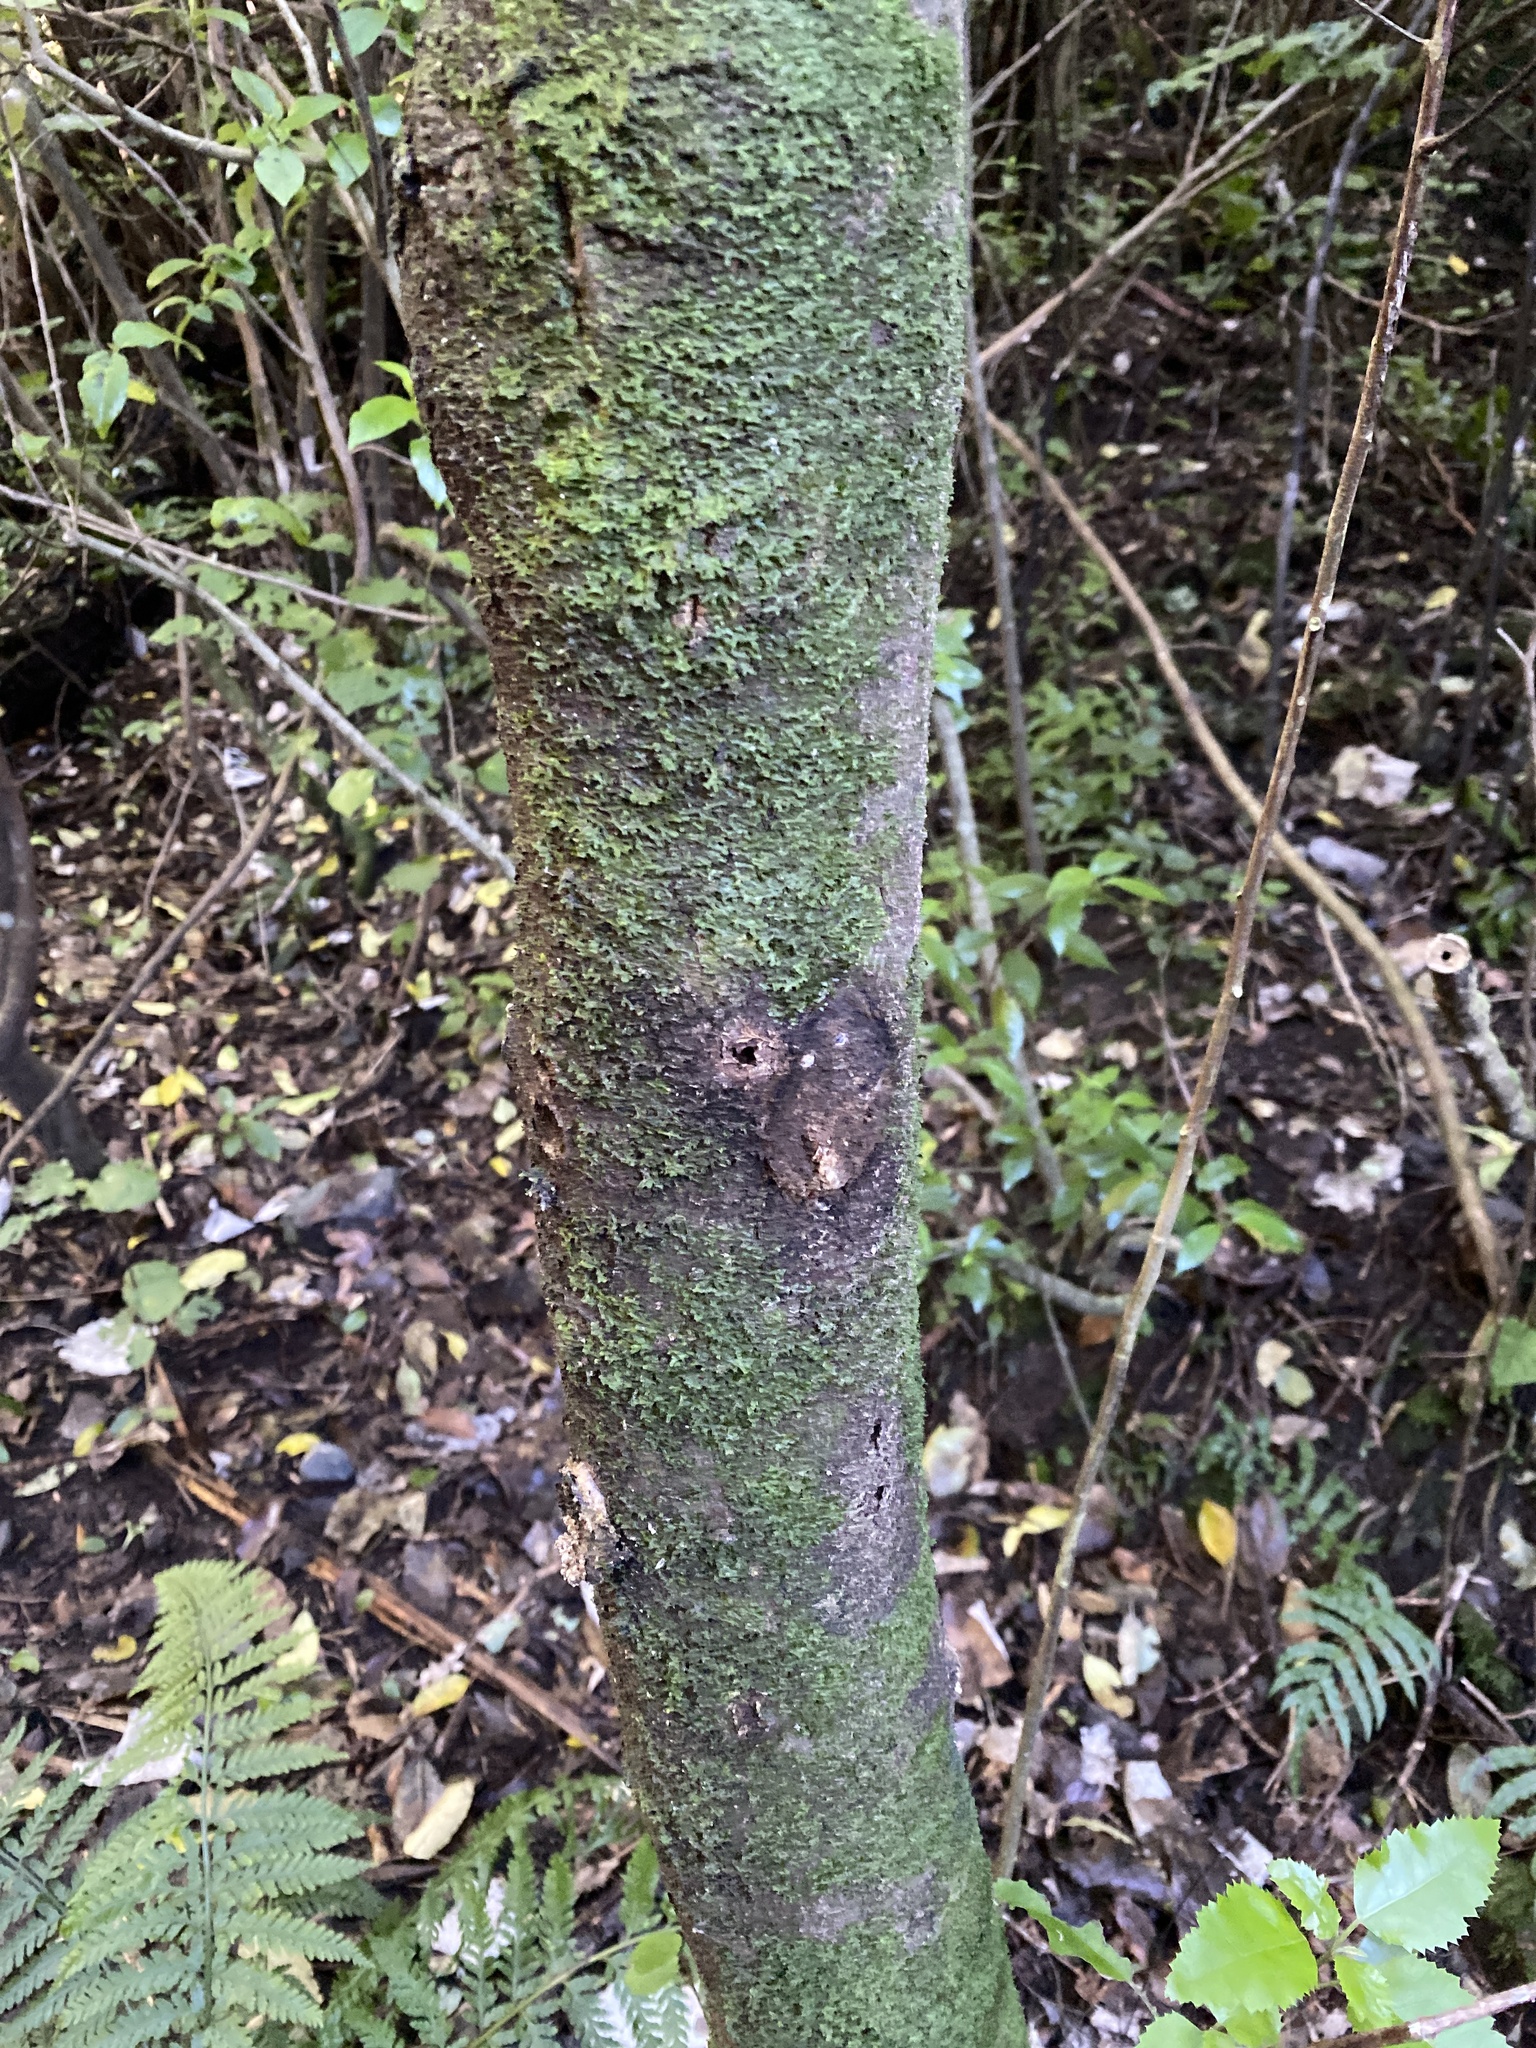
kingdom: Animalia
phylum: Arthropoda
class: Insecta
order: Lepidoptera
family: Hepialidae
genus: Aenetus
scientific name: Aenetus virescens
